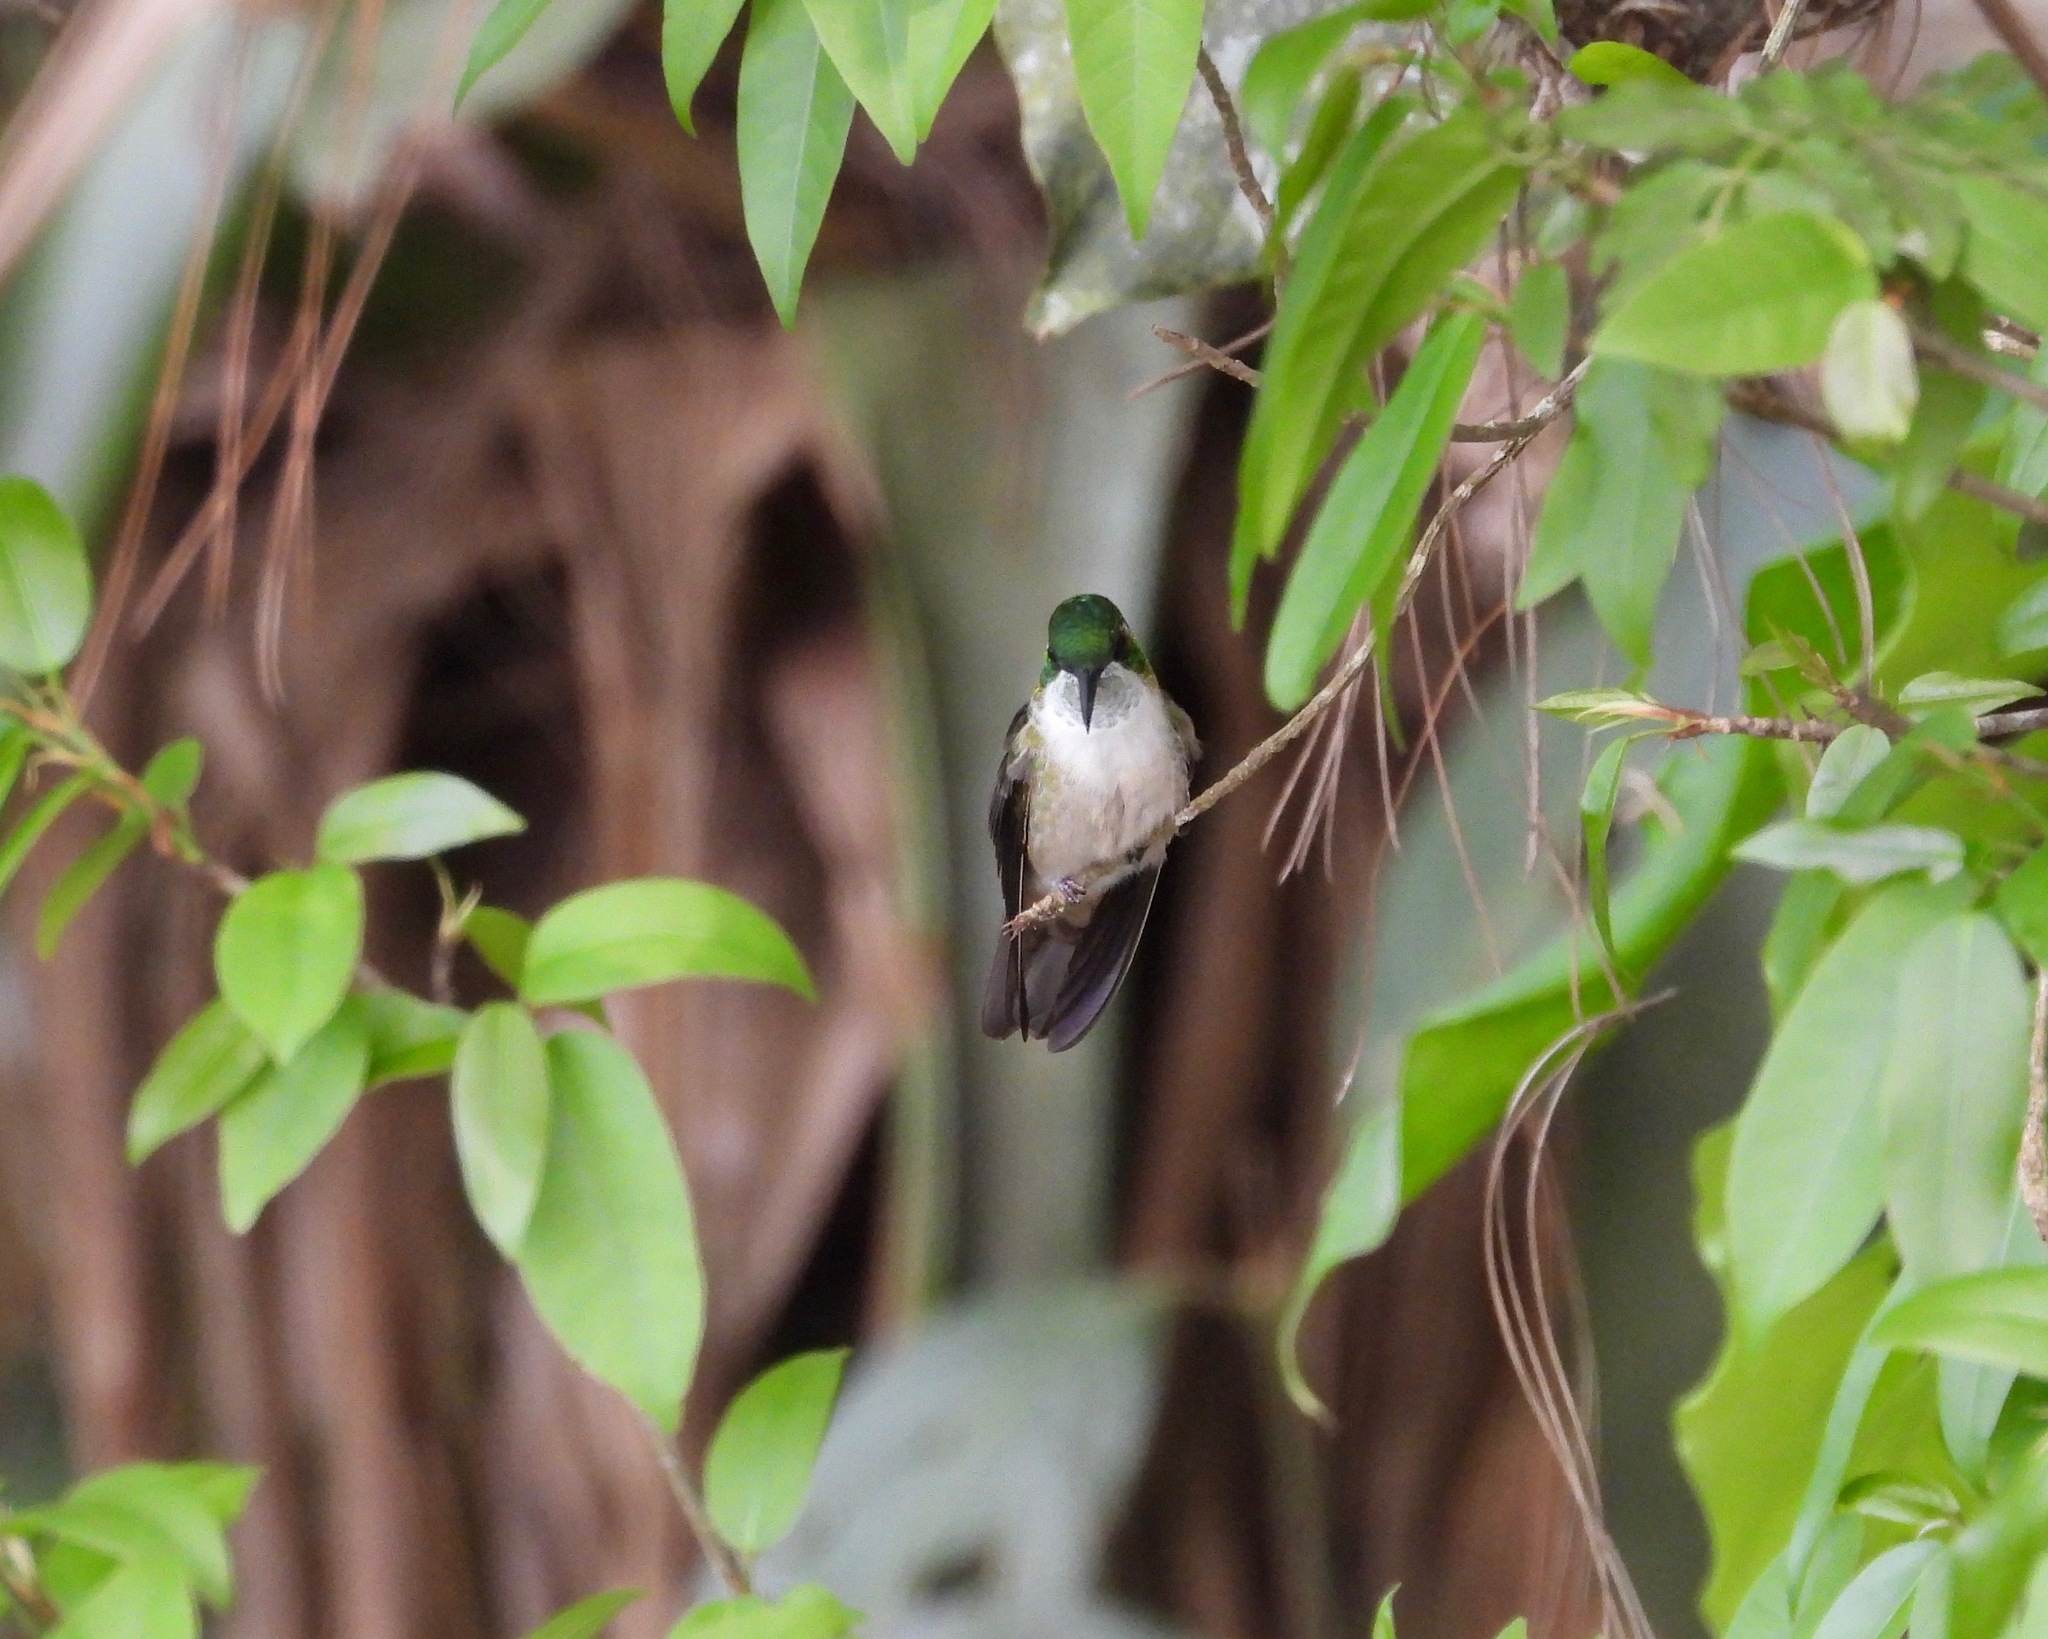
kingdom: Animalia
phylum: Chordata
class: Aves
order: Apodiformes
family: Trochilidae
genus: Lampornis
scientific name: Lampornis viridipallens
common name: Green-throated mountain-gem
